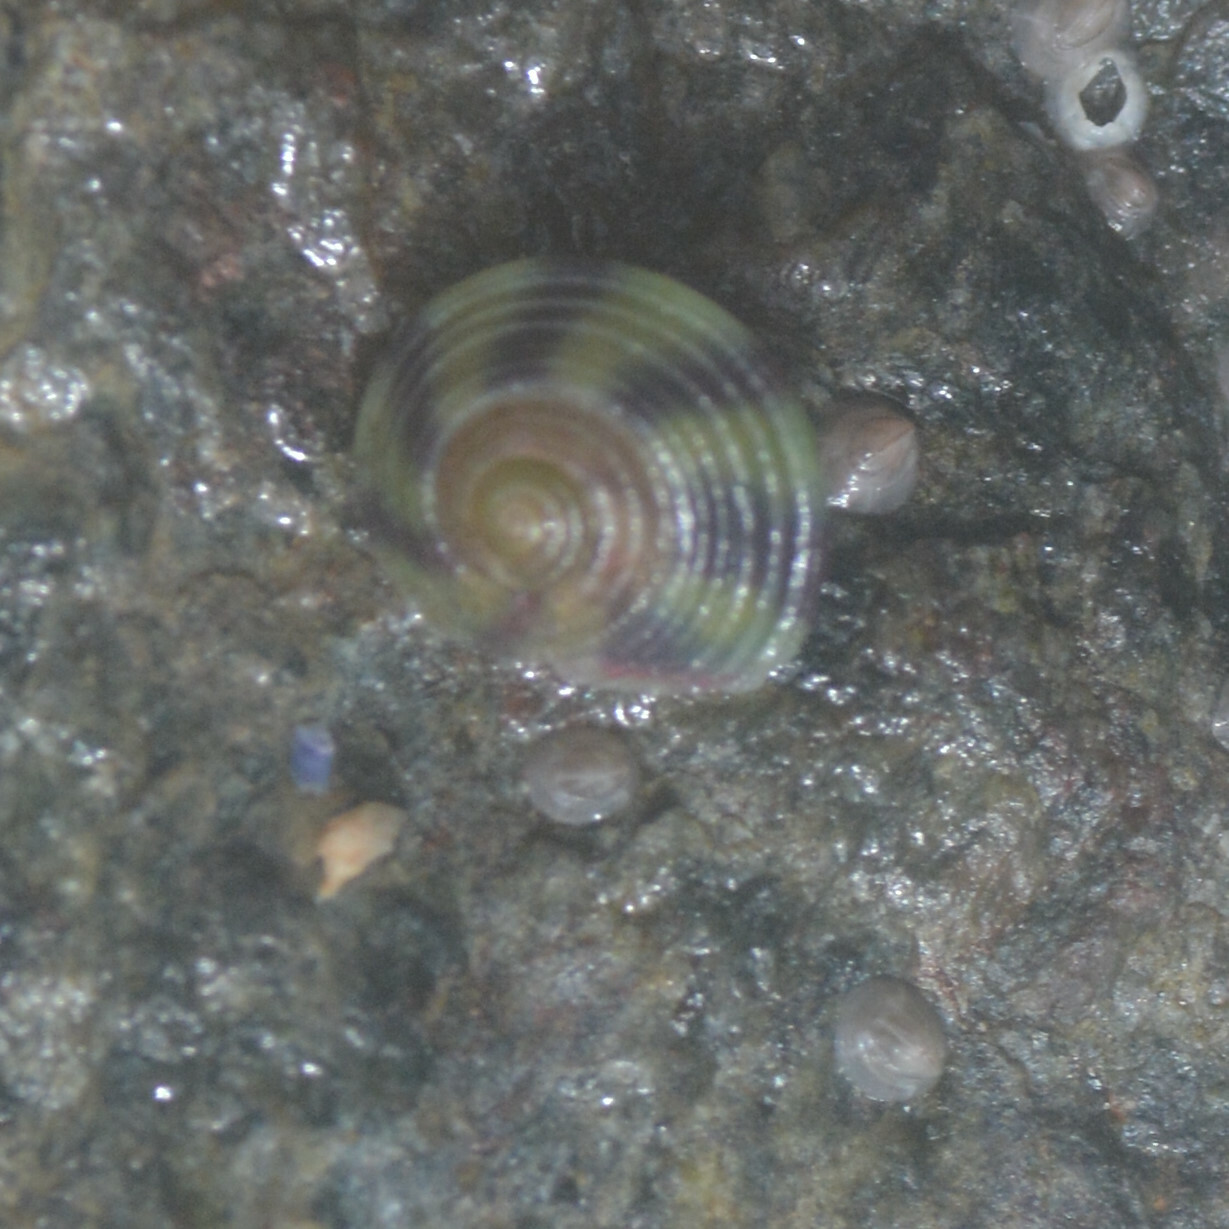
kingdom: Animalia
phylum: Mollusca
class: Gastropoda
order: Trochida
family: Trochidae
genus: Steromphala
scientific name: Steromphala umbilicalis
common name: Flat top shell
